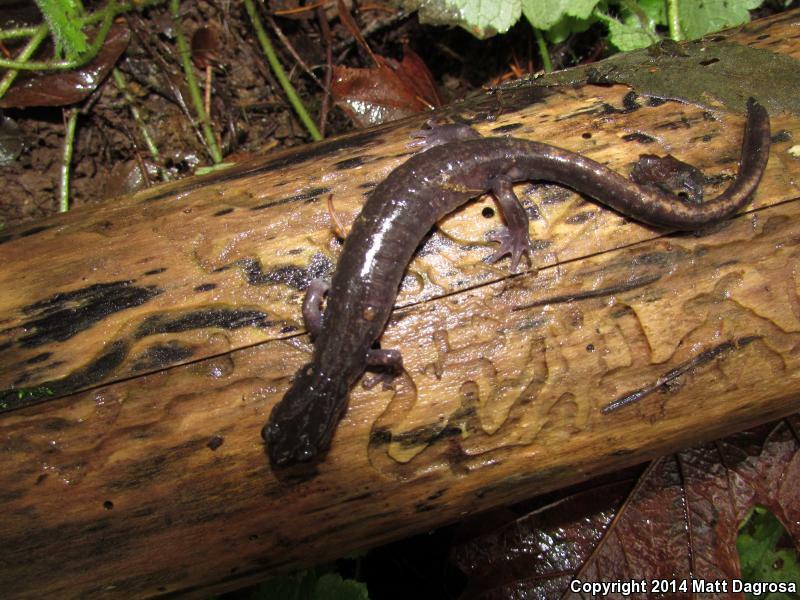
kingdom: Animalia
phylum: Chordata
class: Amphibia
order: Caudata
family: Plethodontidae
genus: Plethodon
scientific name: Plethodon dunni
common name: Dunn's salamander
